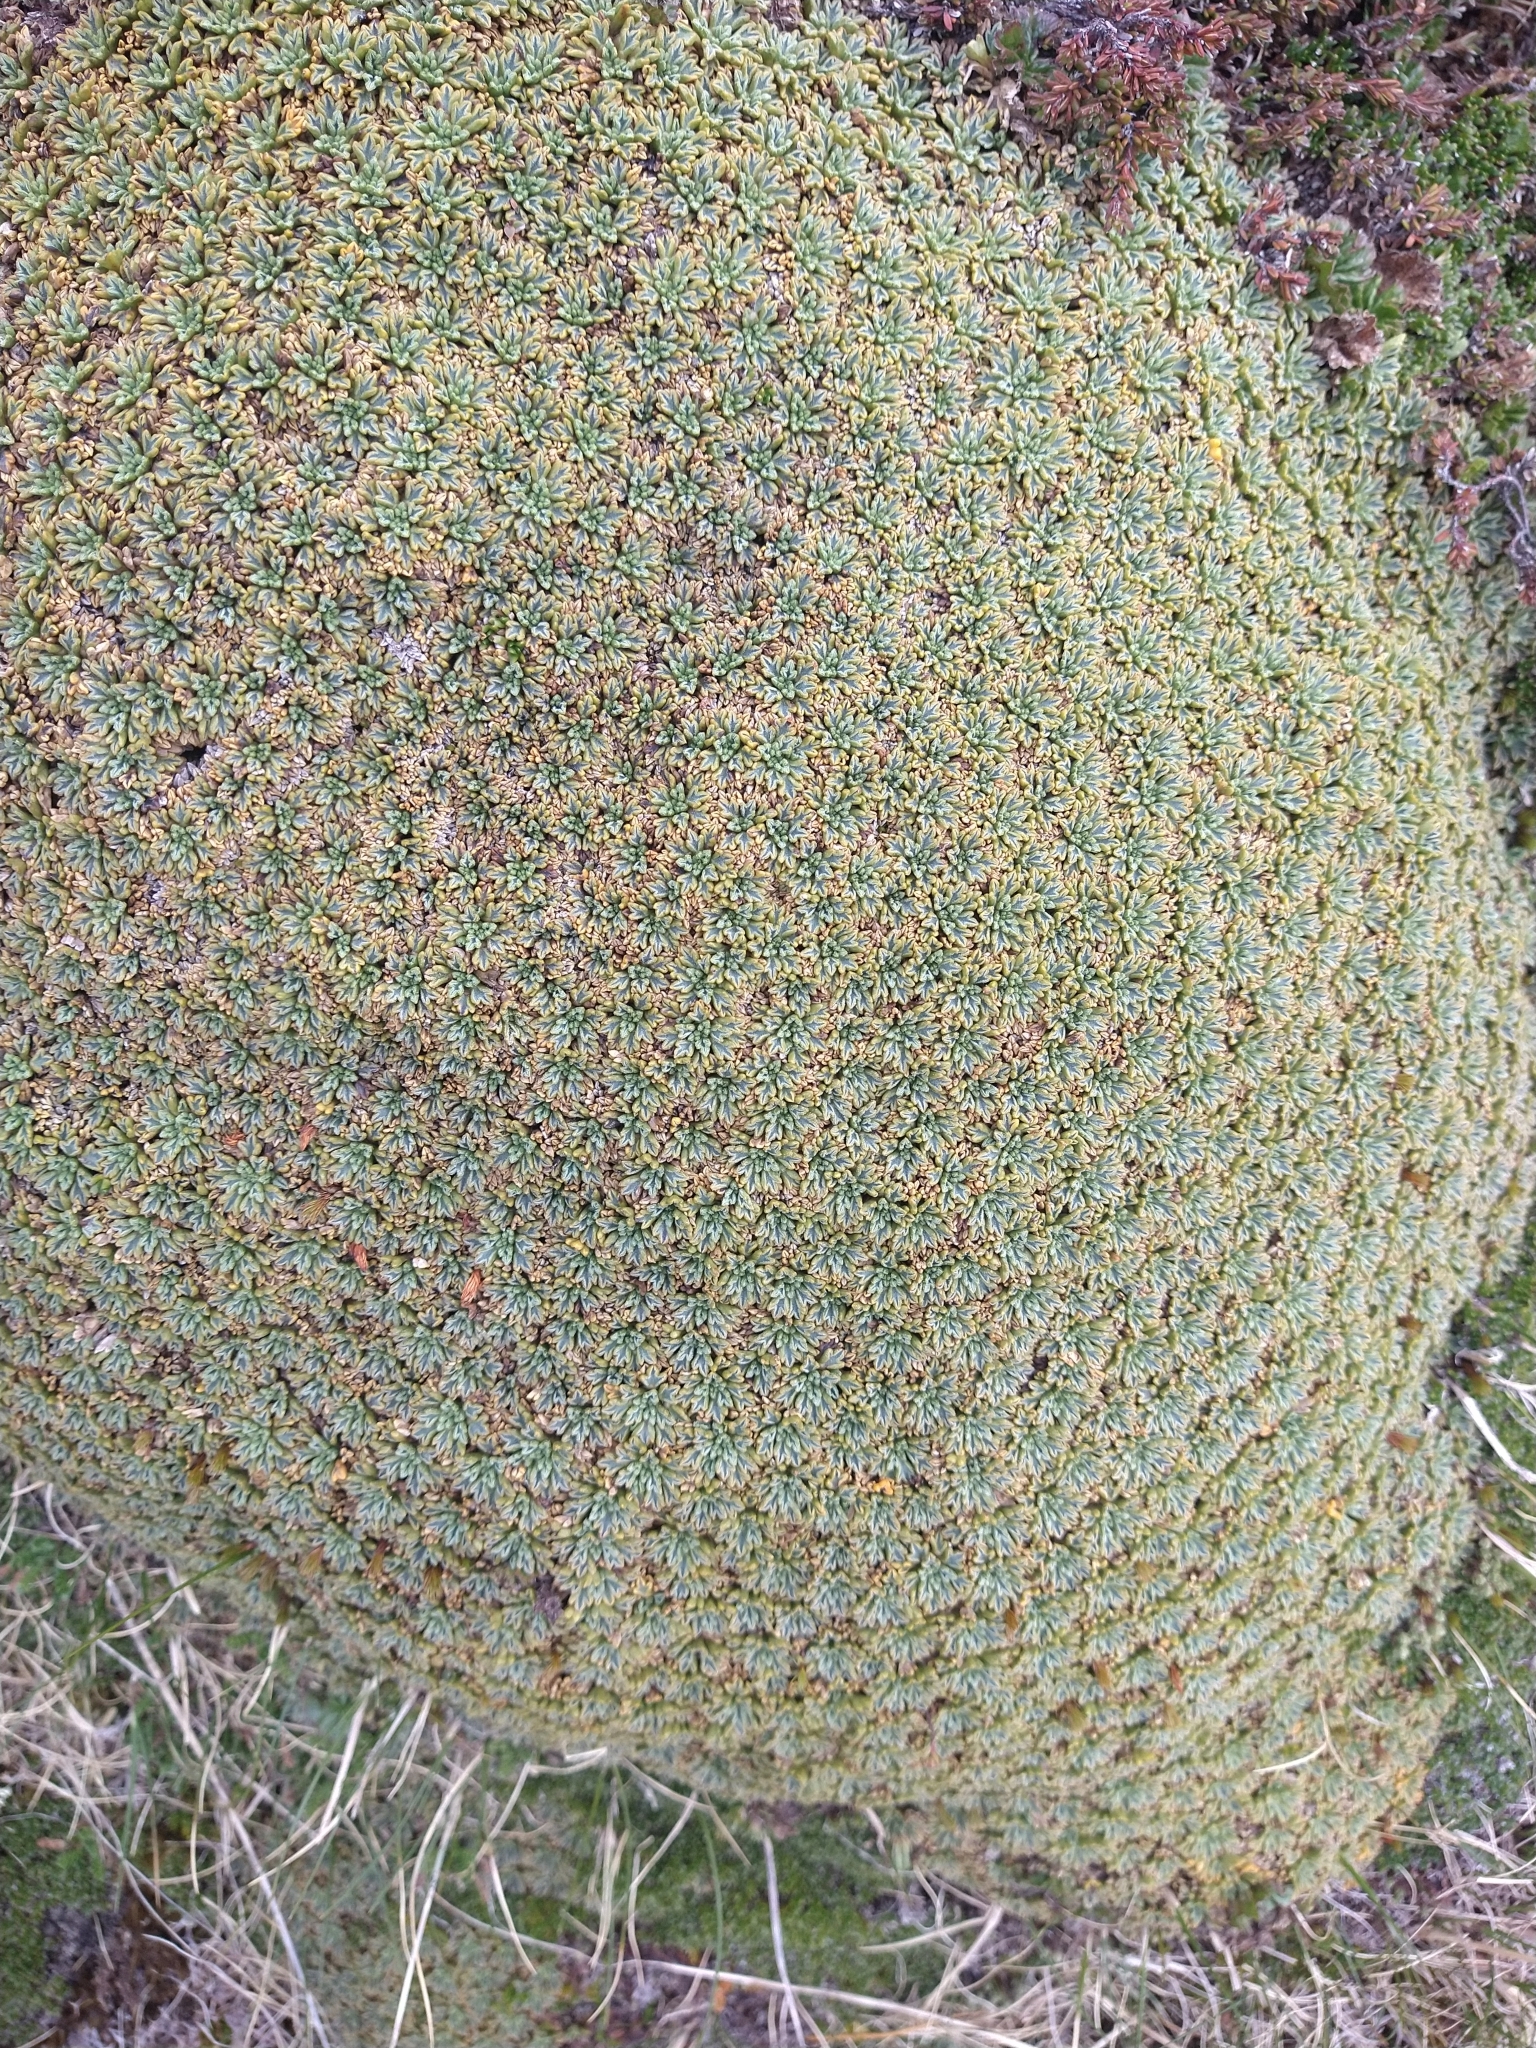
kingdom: Plantae
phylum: Tracheophyta
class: Magnoliopsida
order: Apiales
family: Apiaceae
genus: Bolax
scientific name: Bolax gummifera
